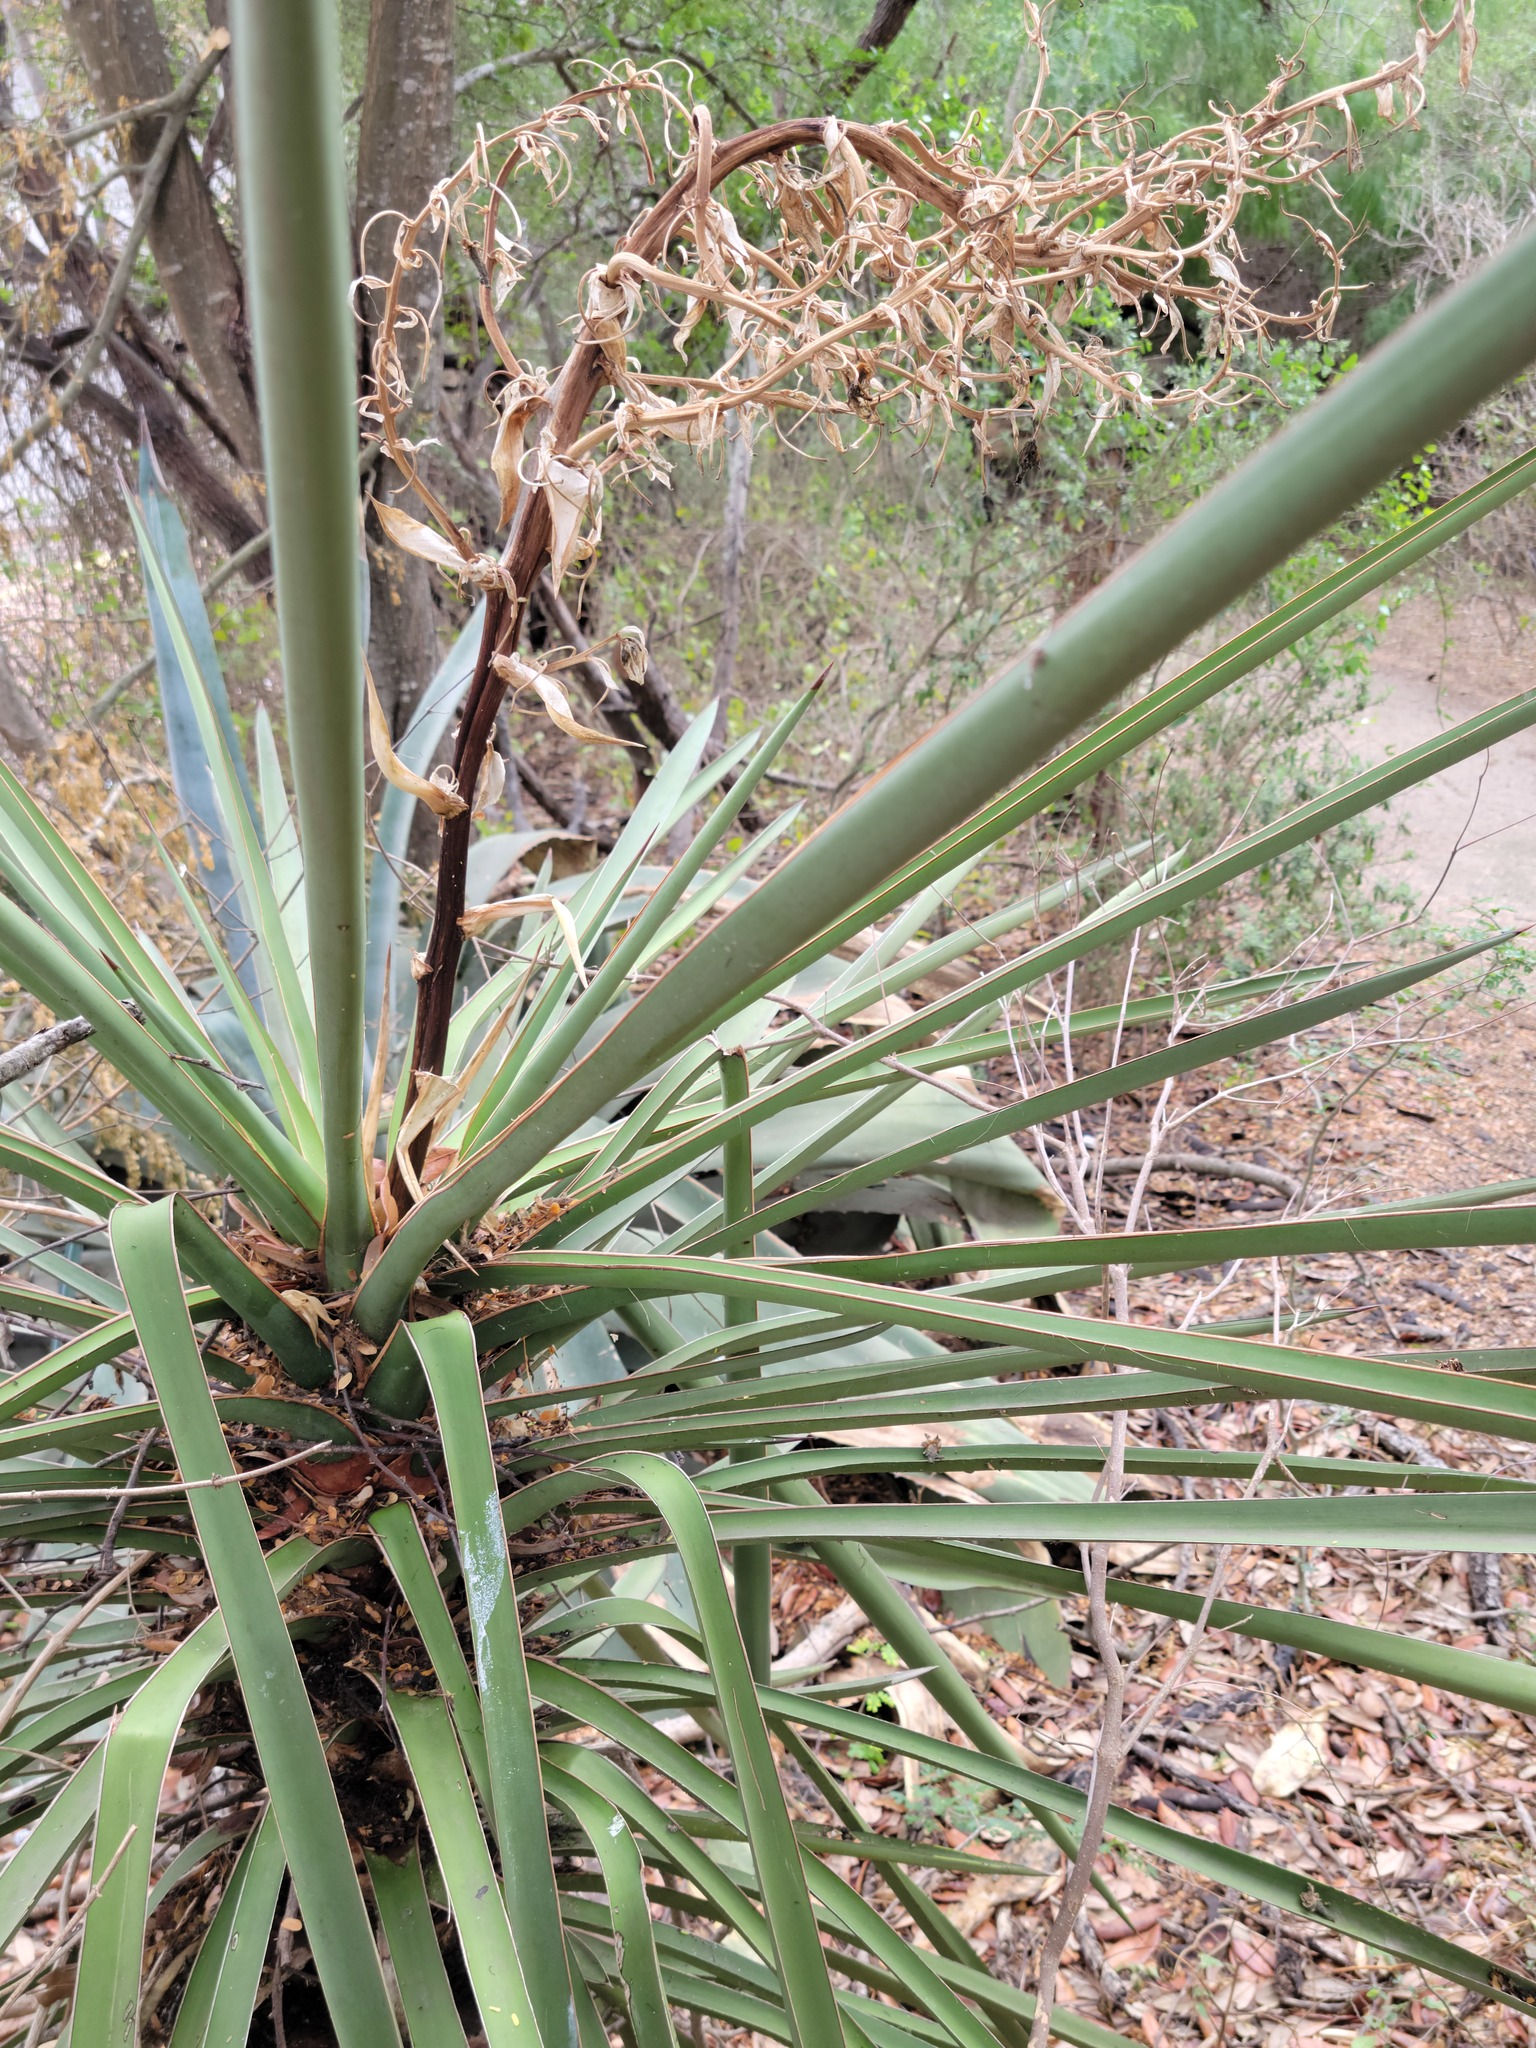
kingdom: Plantae
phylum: Tracheophyta
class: Liliopsida
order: Asparagales
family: Asparagaceae
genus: Yucca
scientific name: Yucca treculiana
